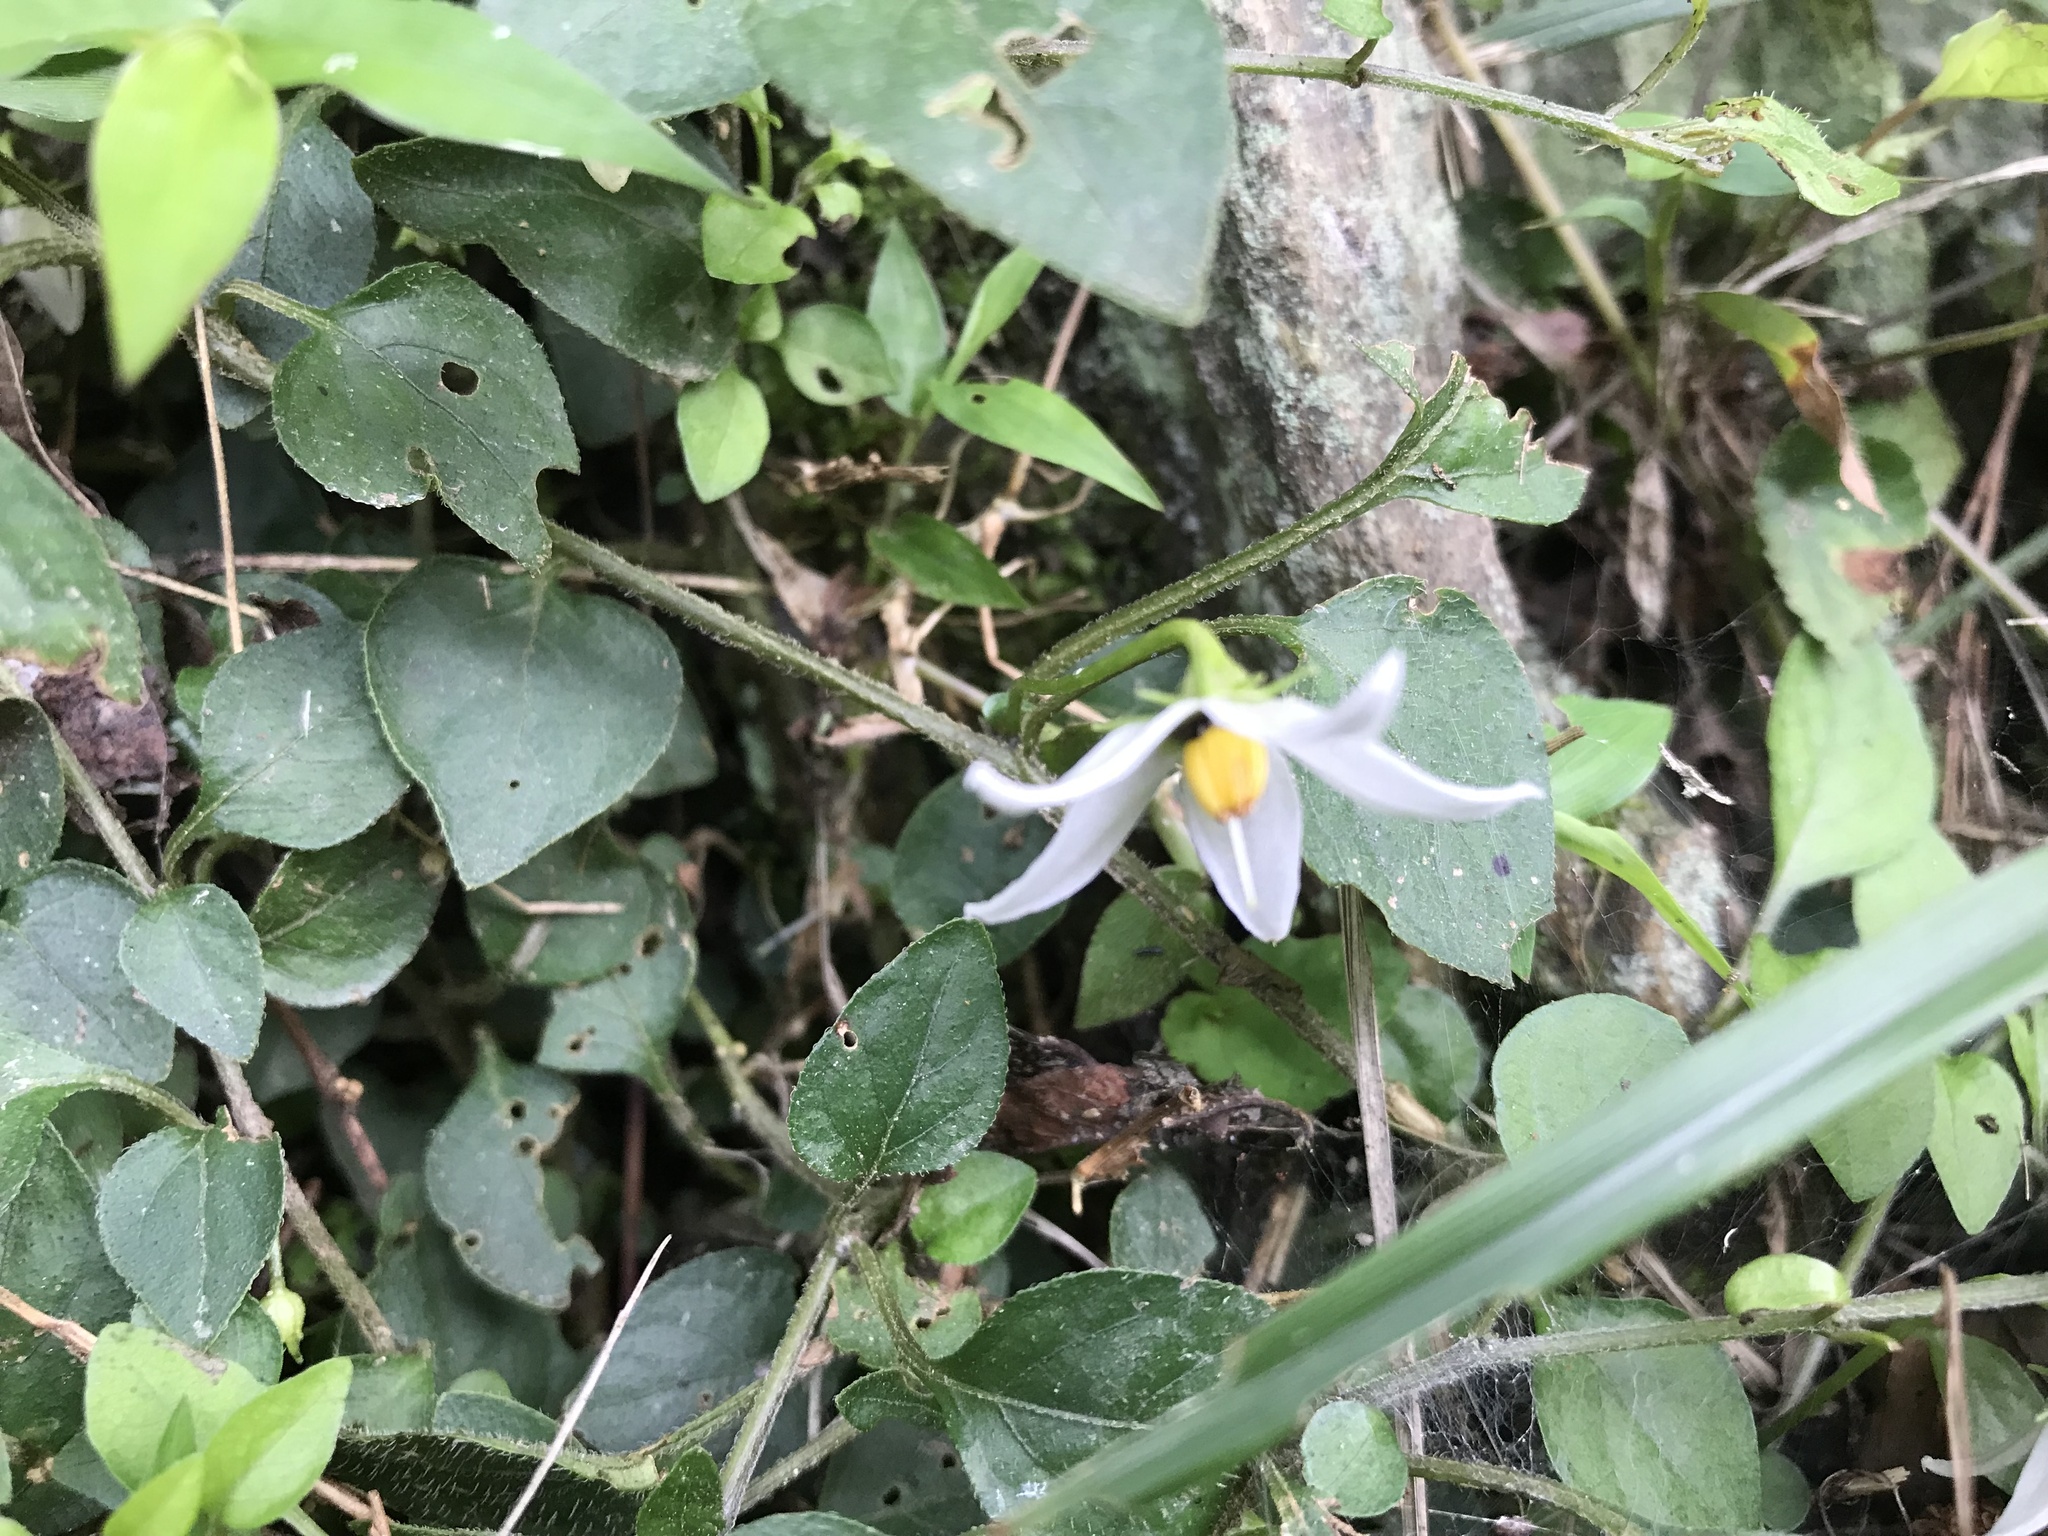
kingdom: Plantae
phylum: Tracheophyta
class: Magnoliopsida
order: Solanales
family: Solanaceae
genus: Lycianthes
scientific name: Lycianthes lysimachioides
